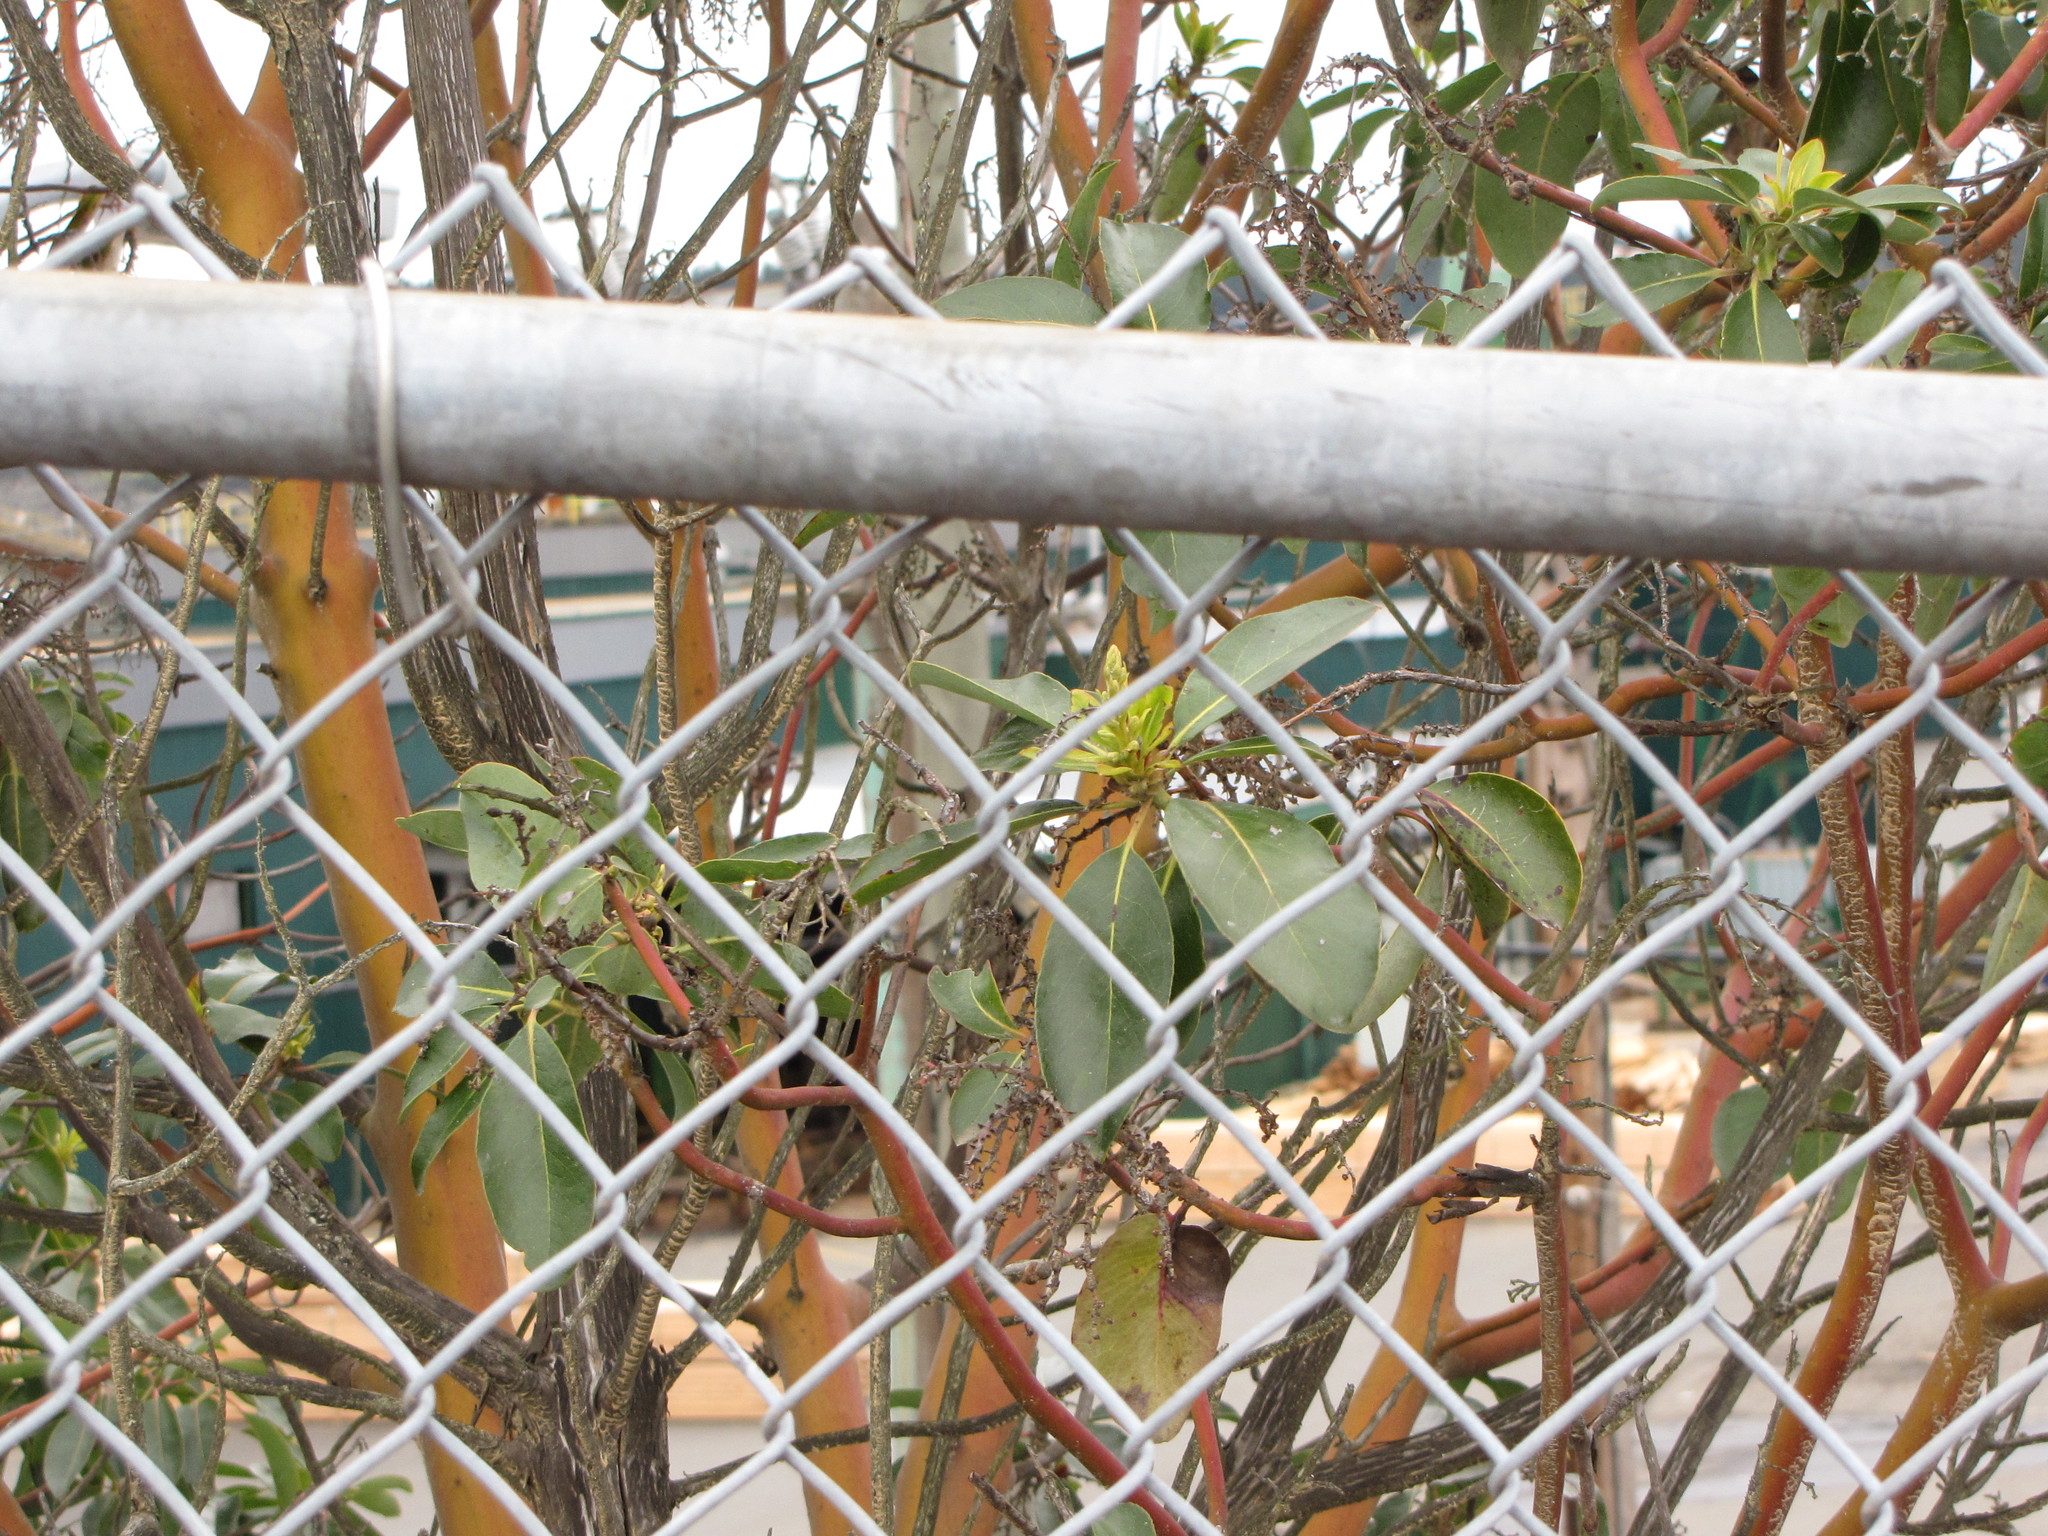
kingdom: Plantae
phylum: Tracheophyta
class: Magnoliopsida
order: Ericales
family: Ericaceae
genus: Arbutus
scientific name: Arbutus menziesii
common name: Pacific madrone
